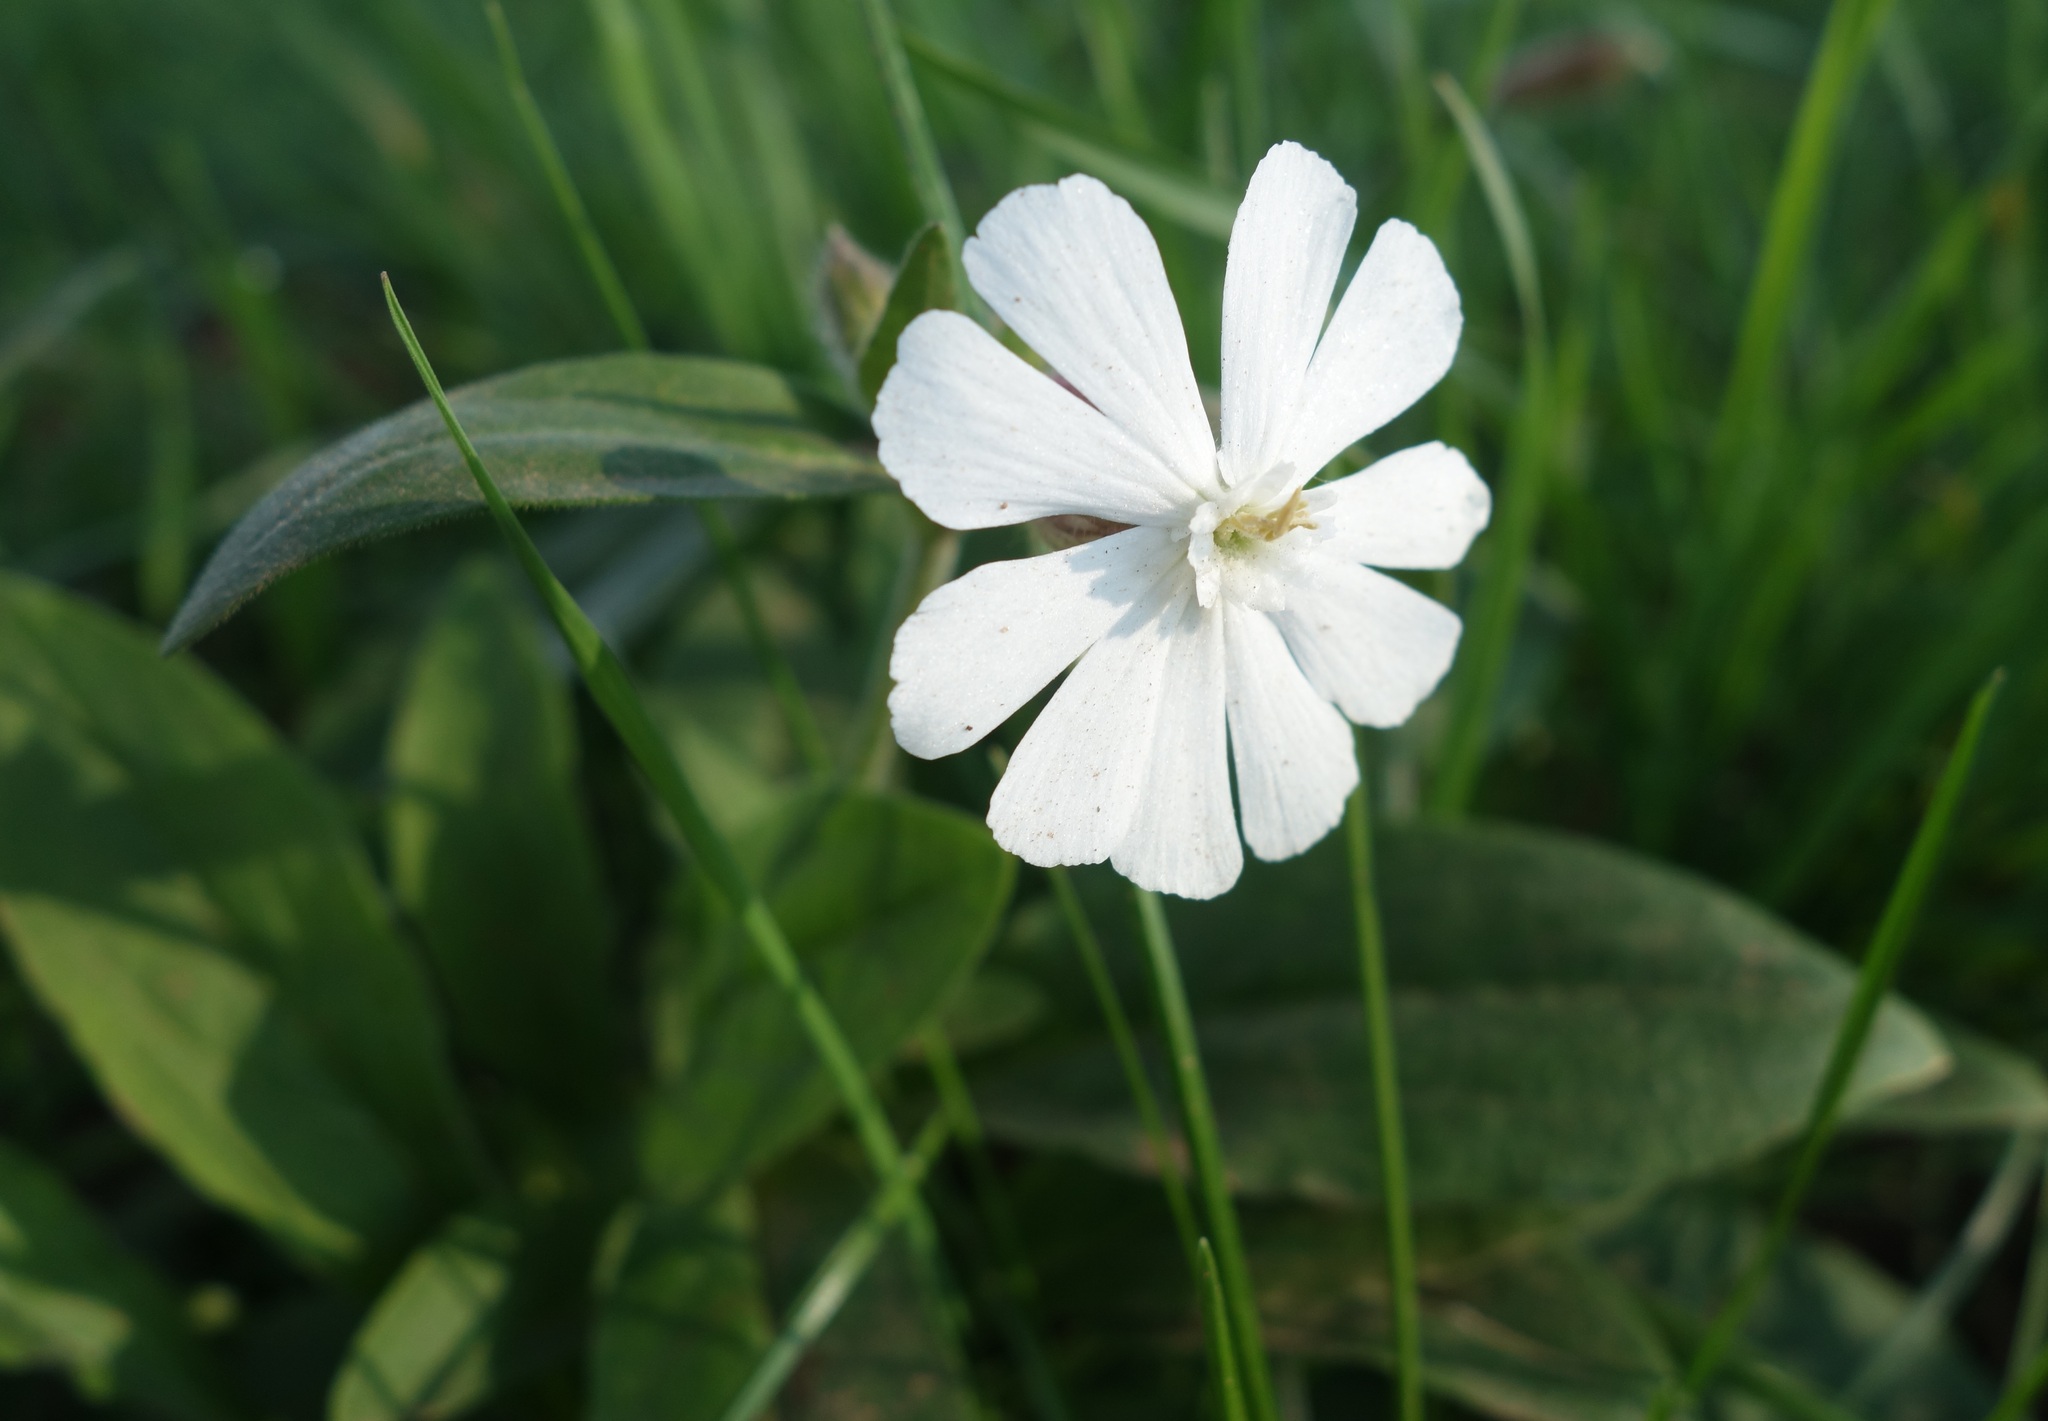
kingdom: Plantae
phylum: Tracheophyta
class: Magnoliopsida
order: Caryophyllales
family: Caryophyllaceae
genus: Silene
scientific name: Silene latifolia
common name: White campion
